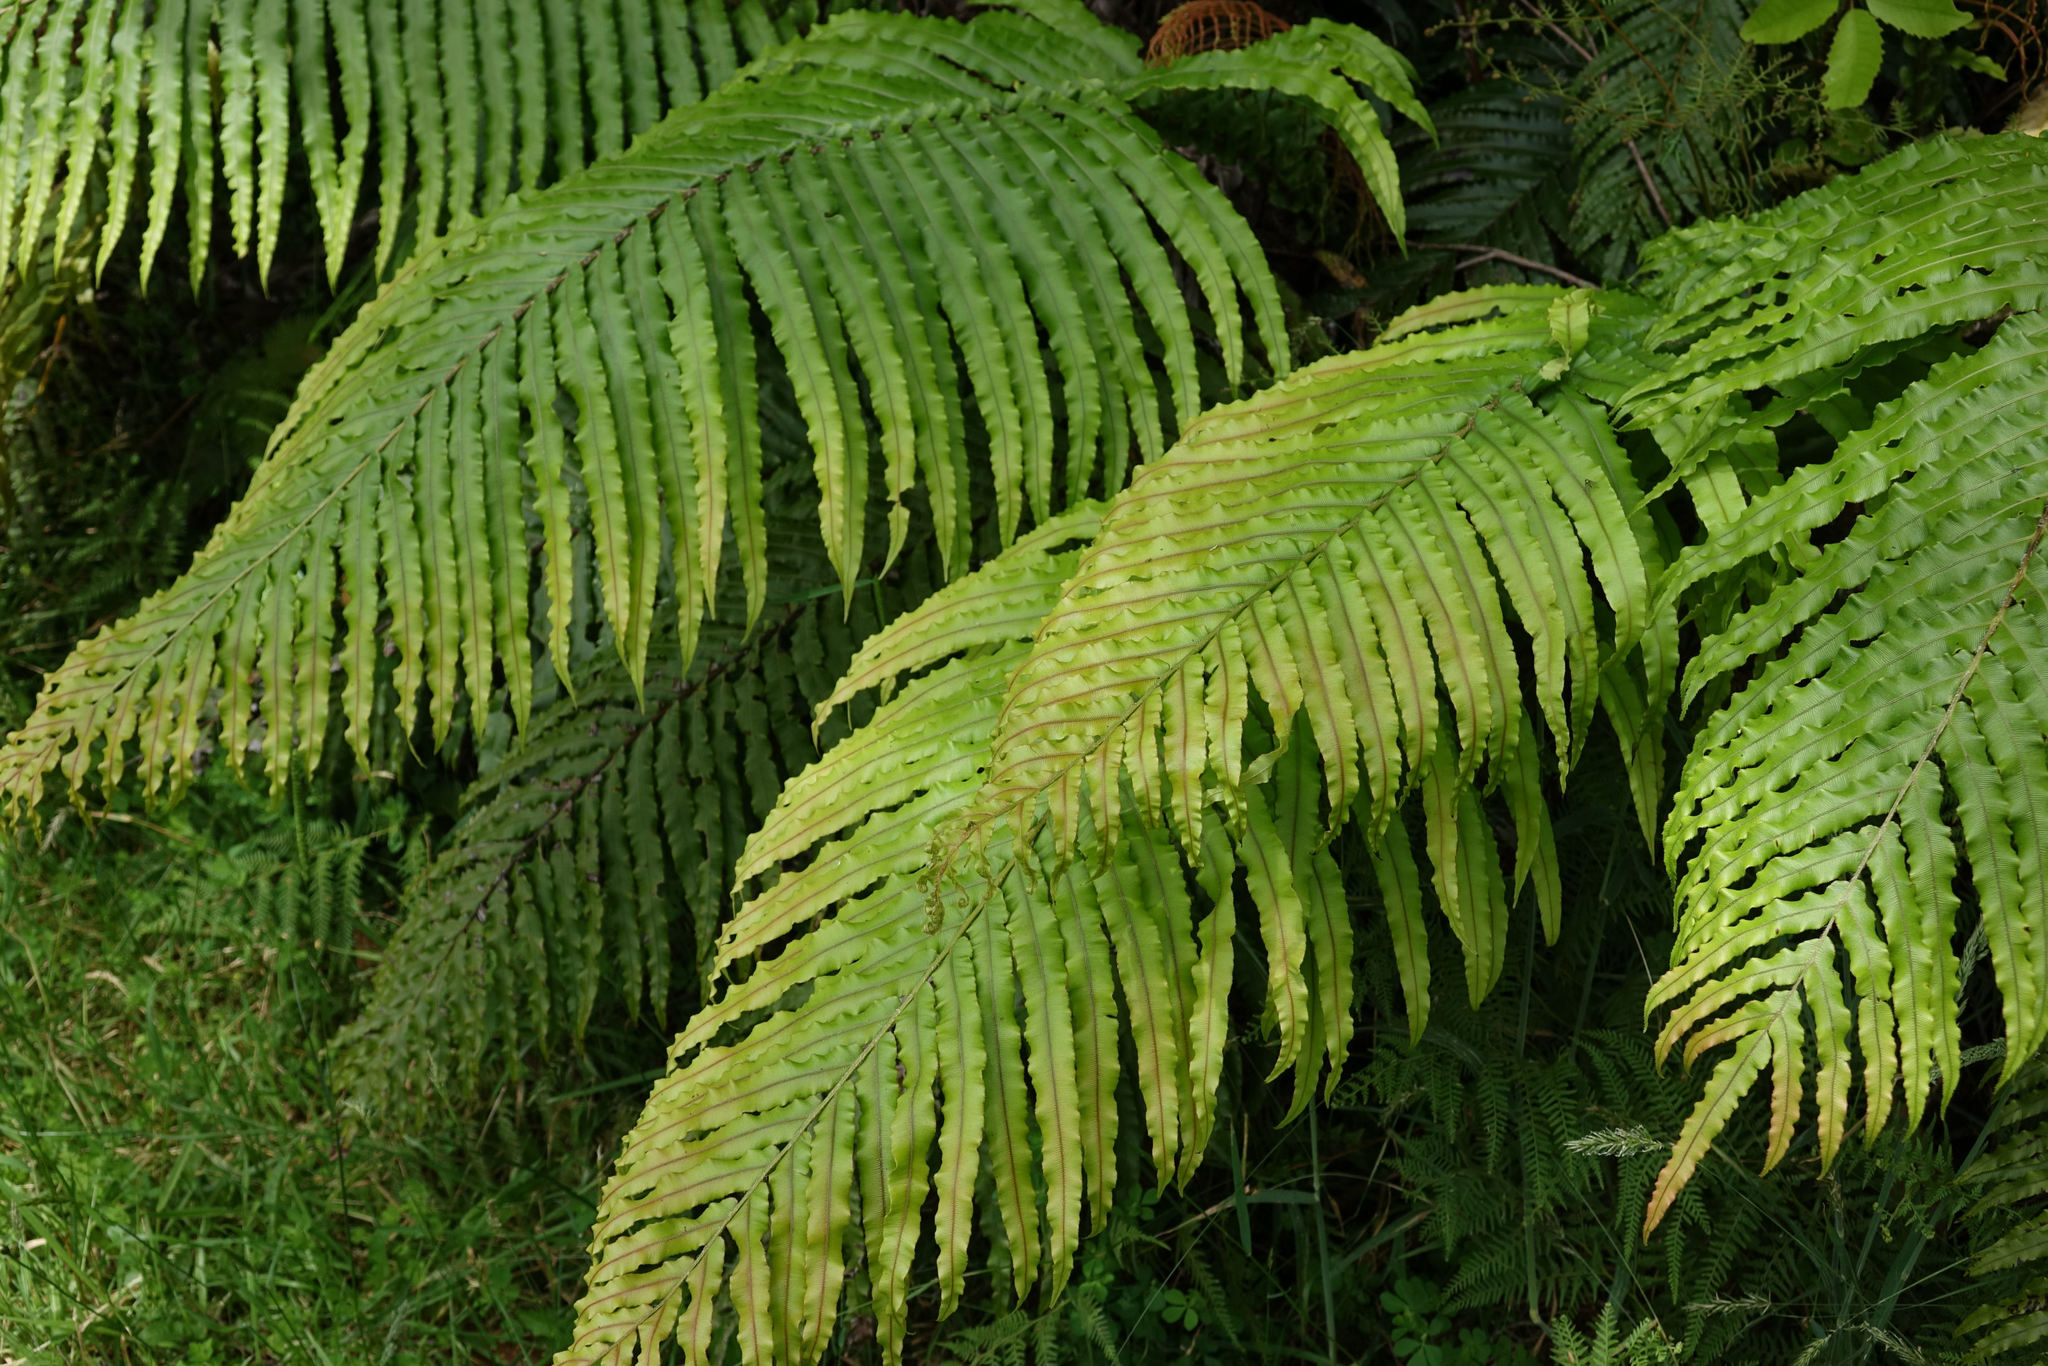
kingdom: Plantae
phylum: Tracheophyta
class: Polypodiopsida
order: Polypodiales
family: Blechnaceae
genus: Parablechnum
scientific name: Parablechnum novae-zelandiae
